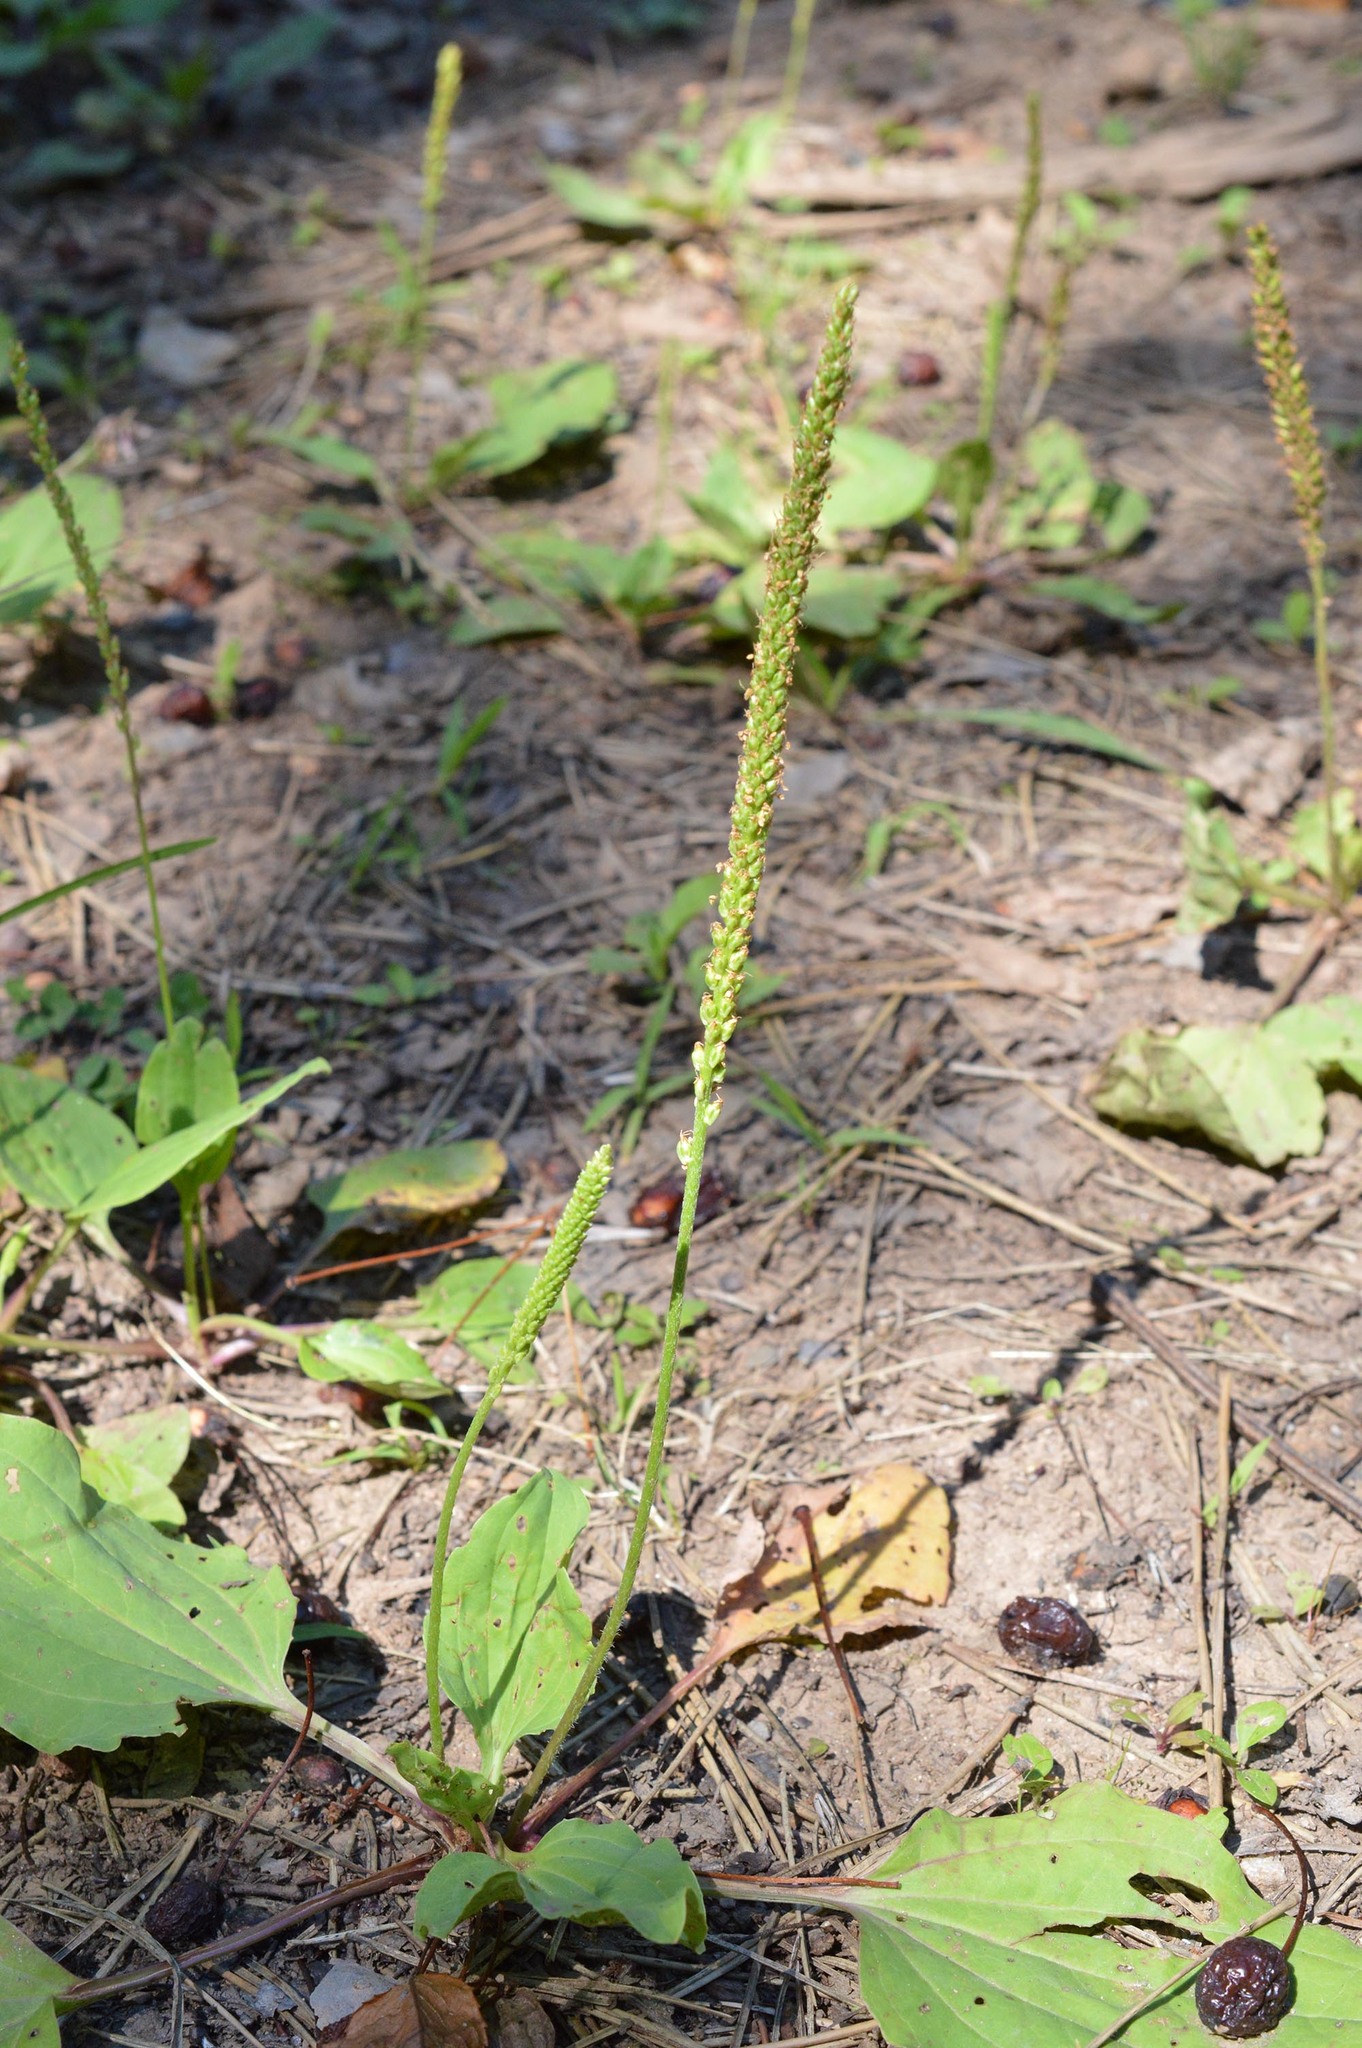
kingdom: Plantae
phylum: Tracheophyta
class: Magnoliopsida
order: Lamiales
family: Plantaginaceae
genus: Plantago
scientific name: Plantago major
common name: Common plantain
